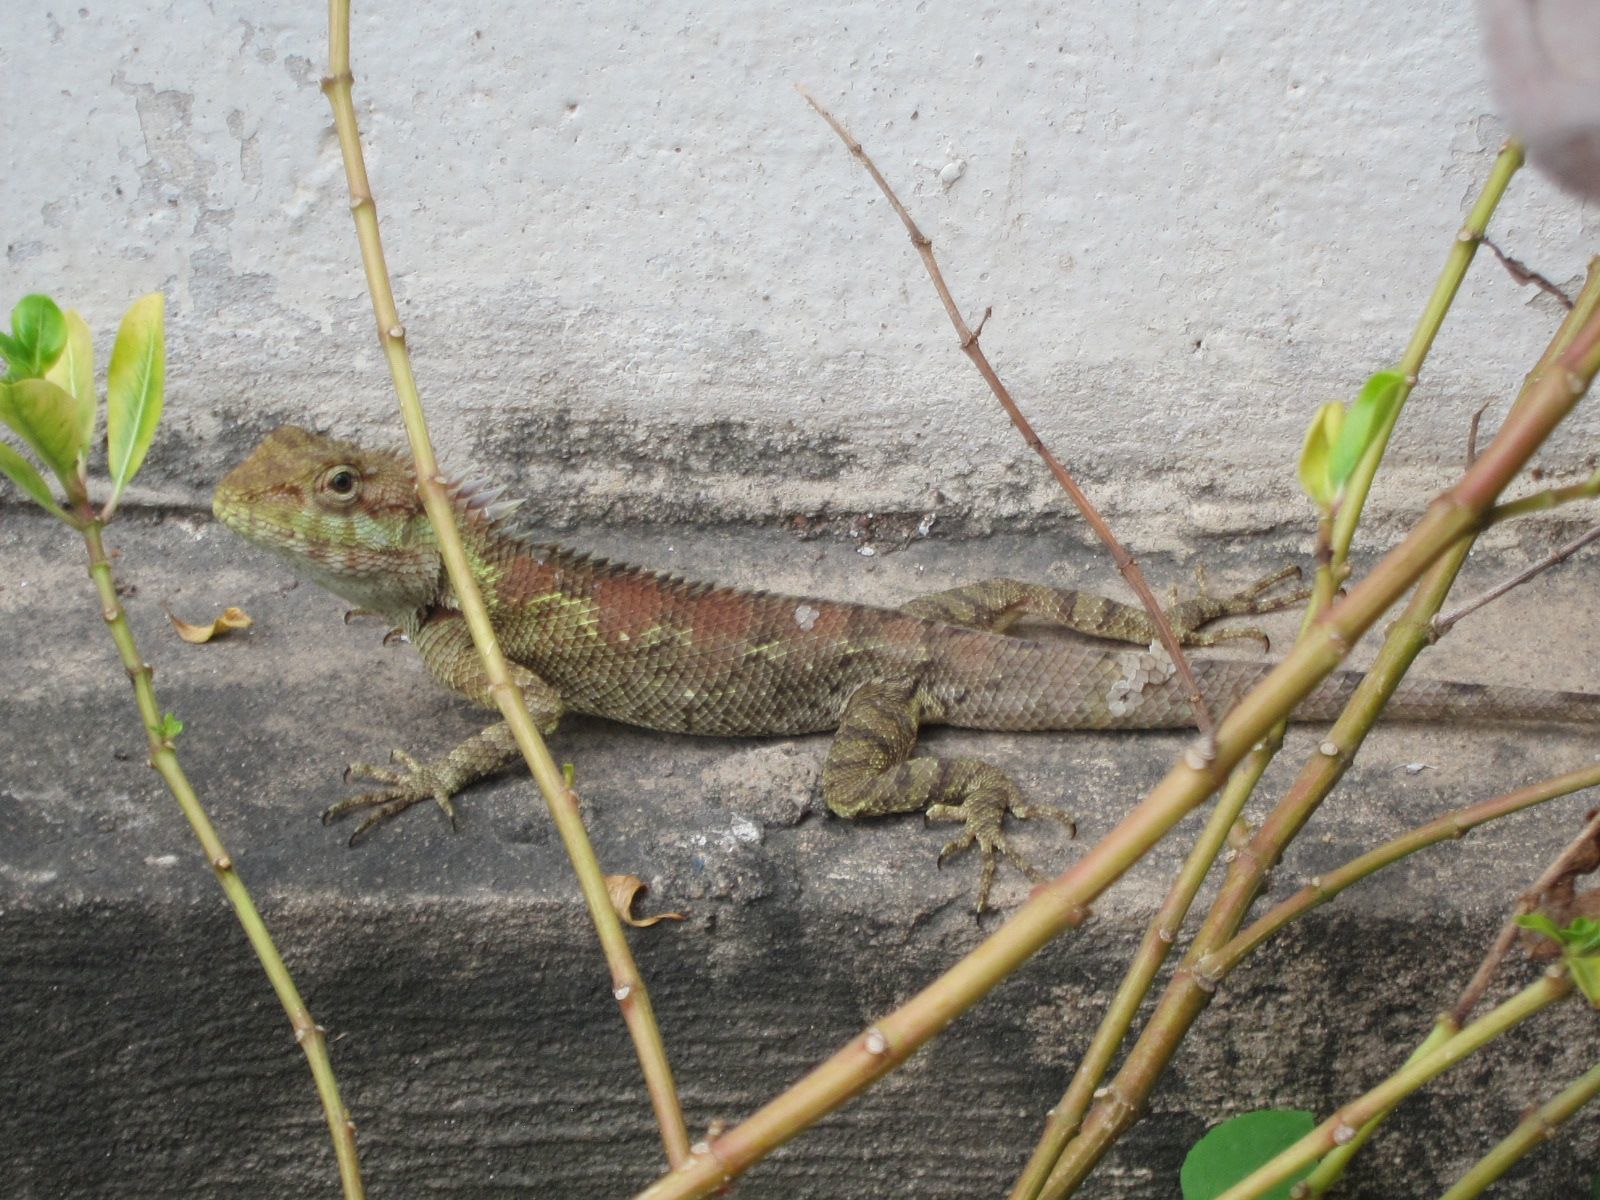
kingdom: Animalia
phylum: Chordata
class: Squamata
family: Agamidae
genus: Calotes
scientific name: Calotes goetzi
